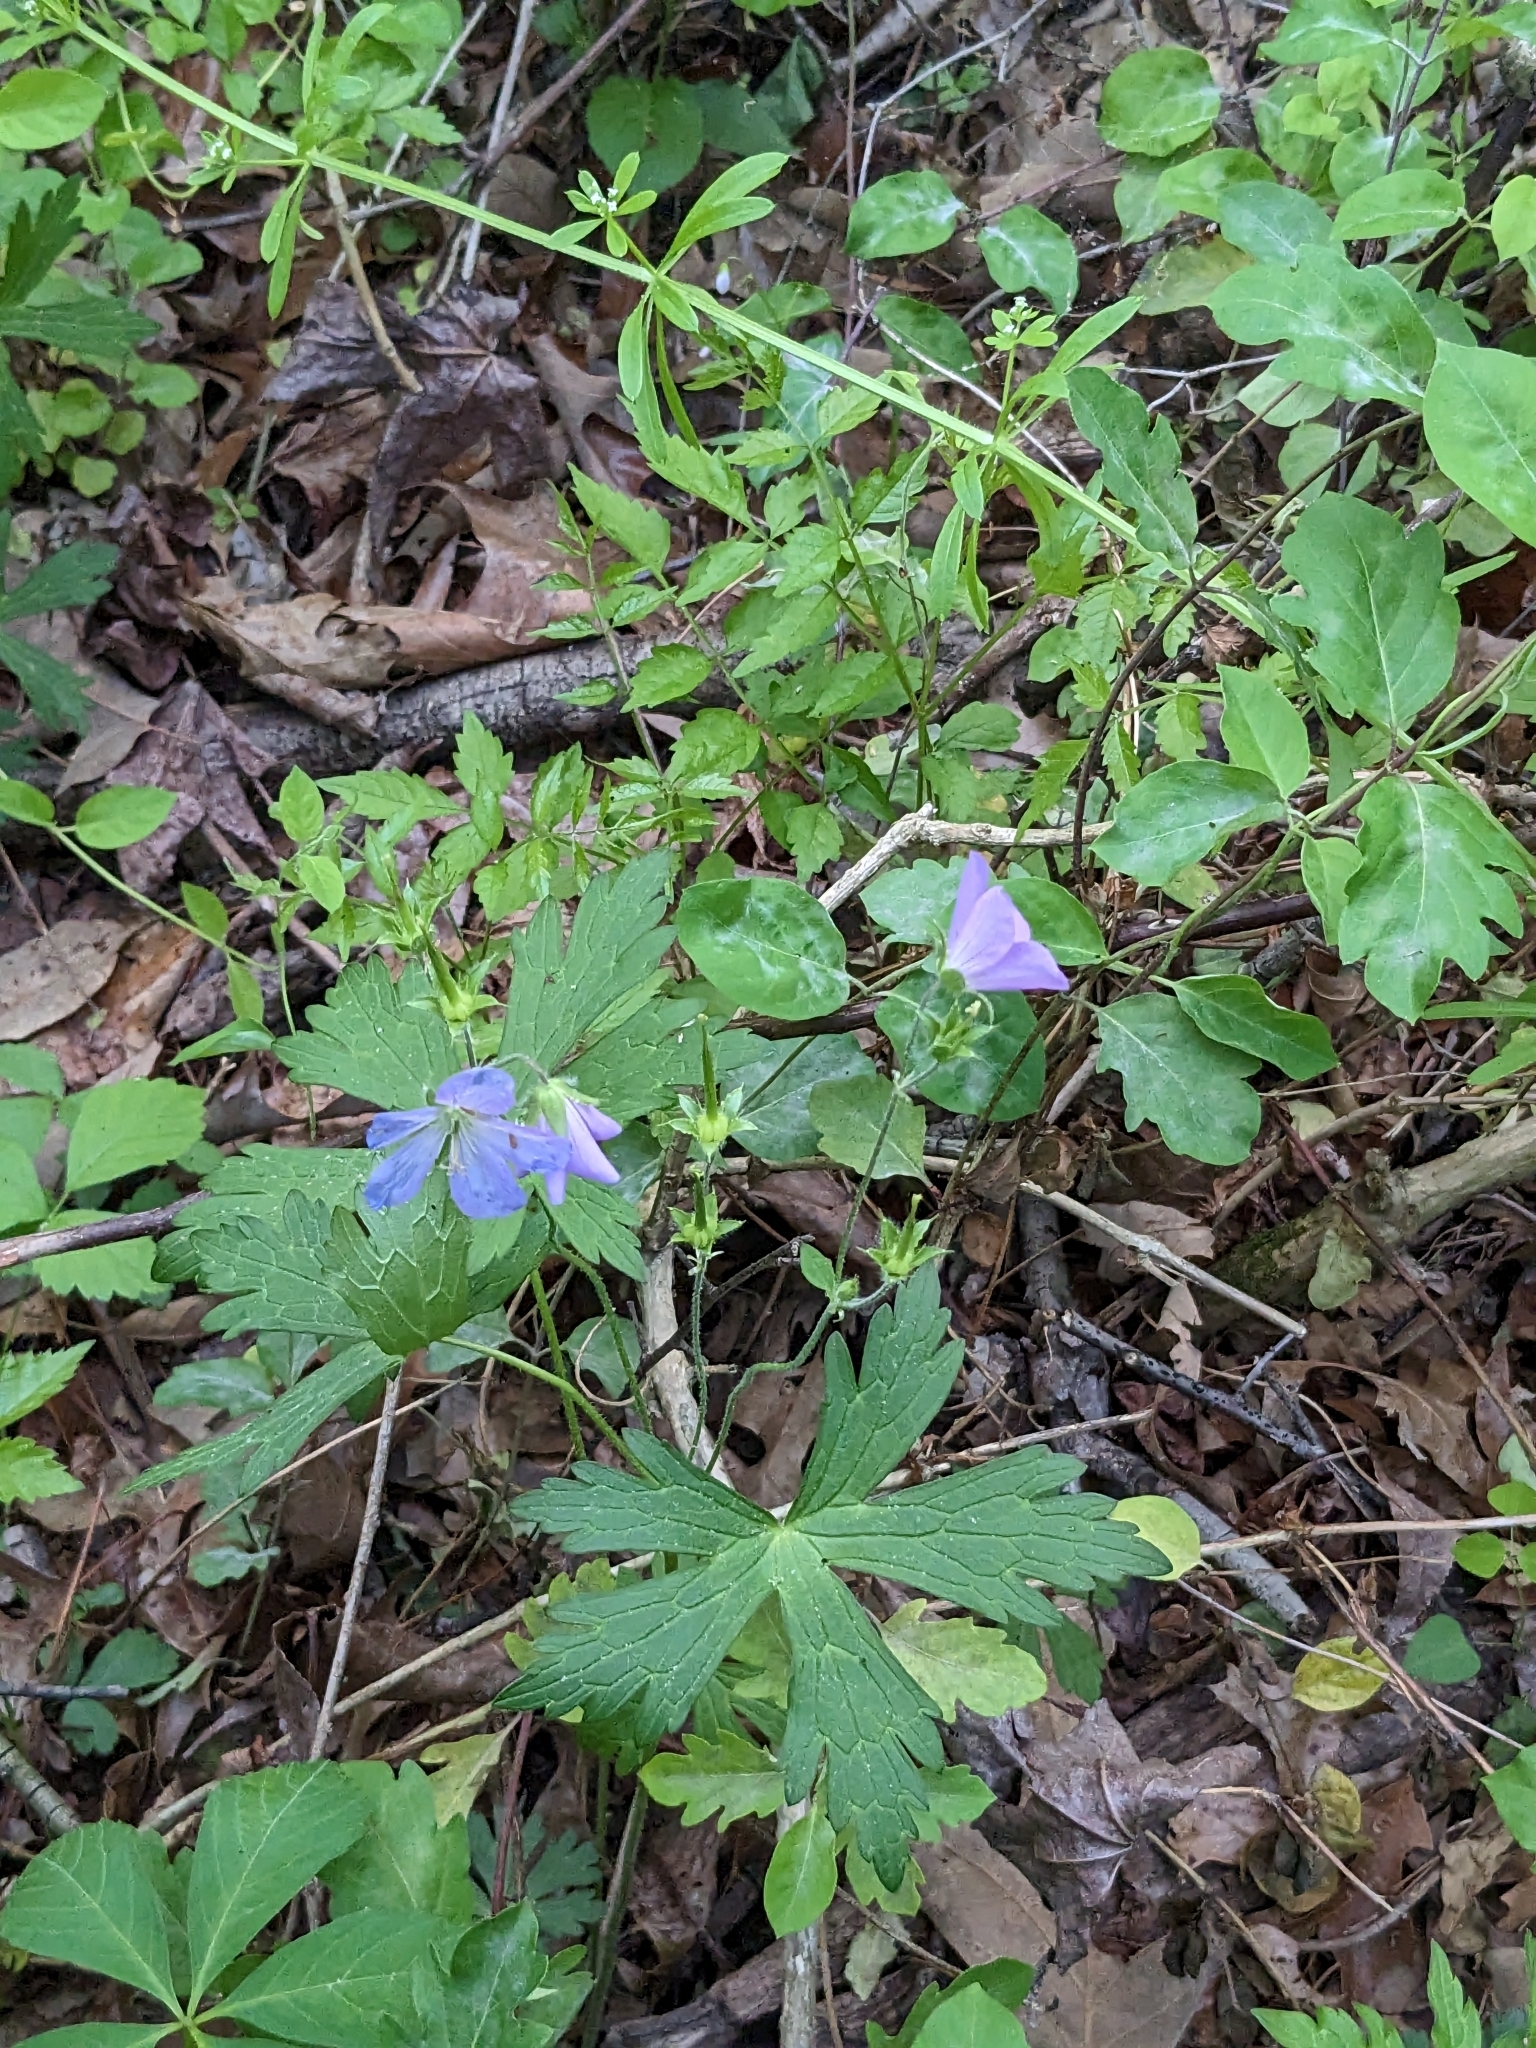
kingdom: Plantae
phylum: Tracheophyta
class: Magnoliopsida
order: Geraniales
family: Geraniaceae
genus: Geranium
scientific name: Geranium maculatum
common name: Spotted geranium
